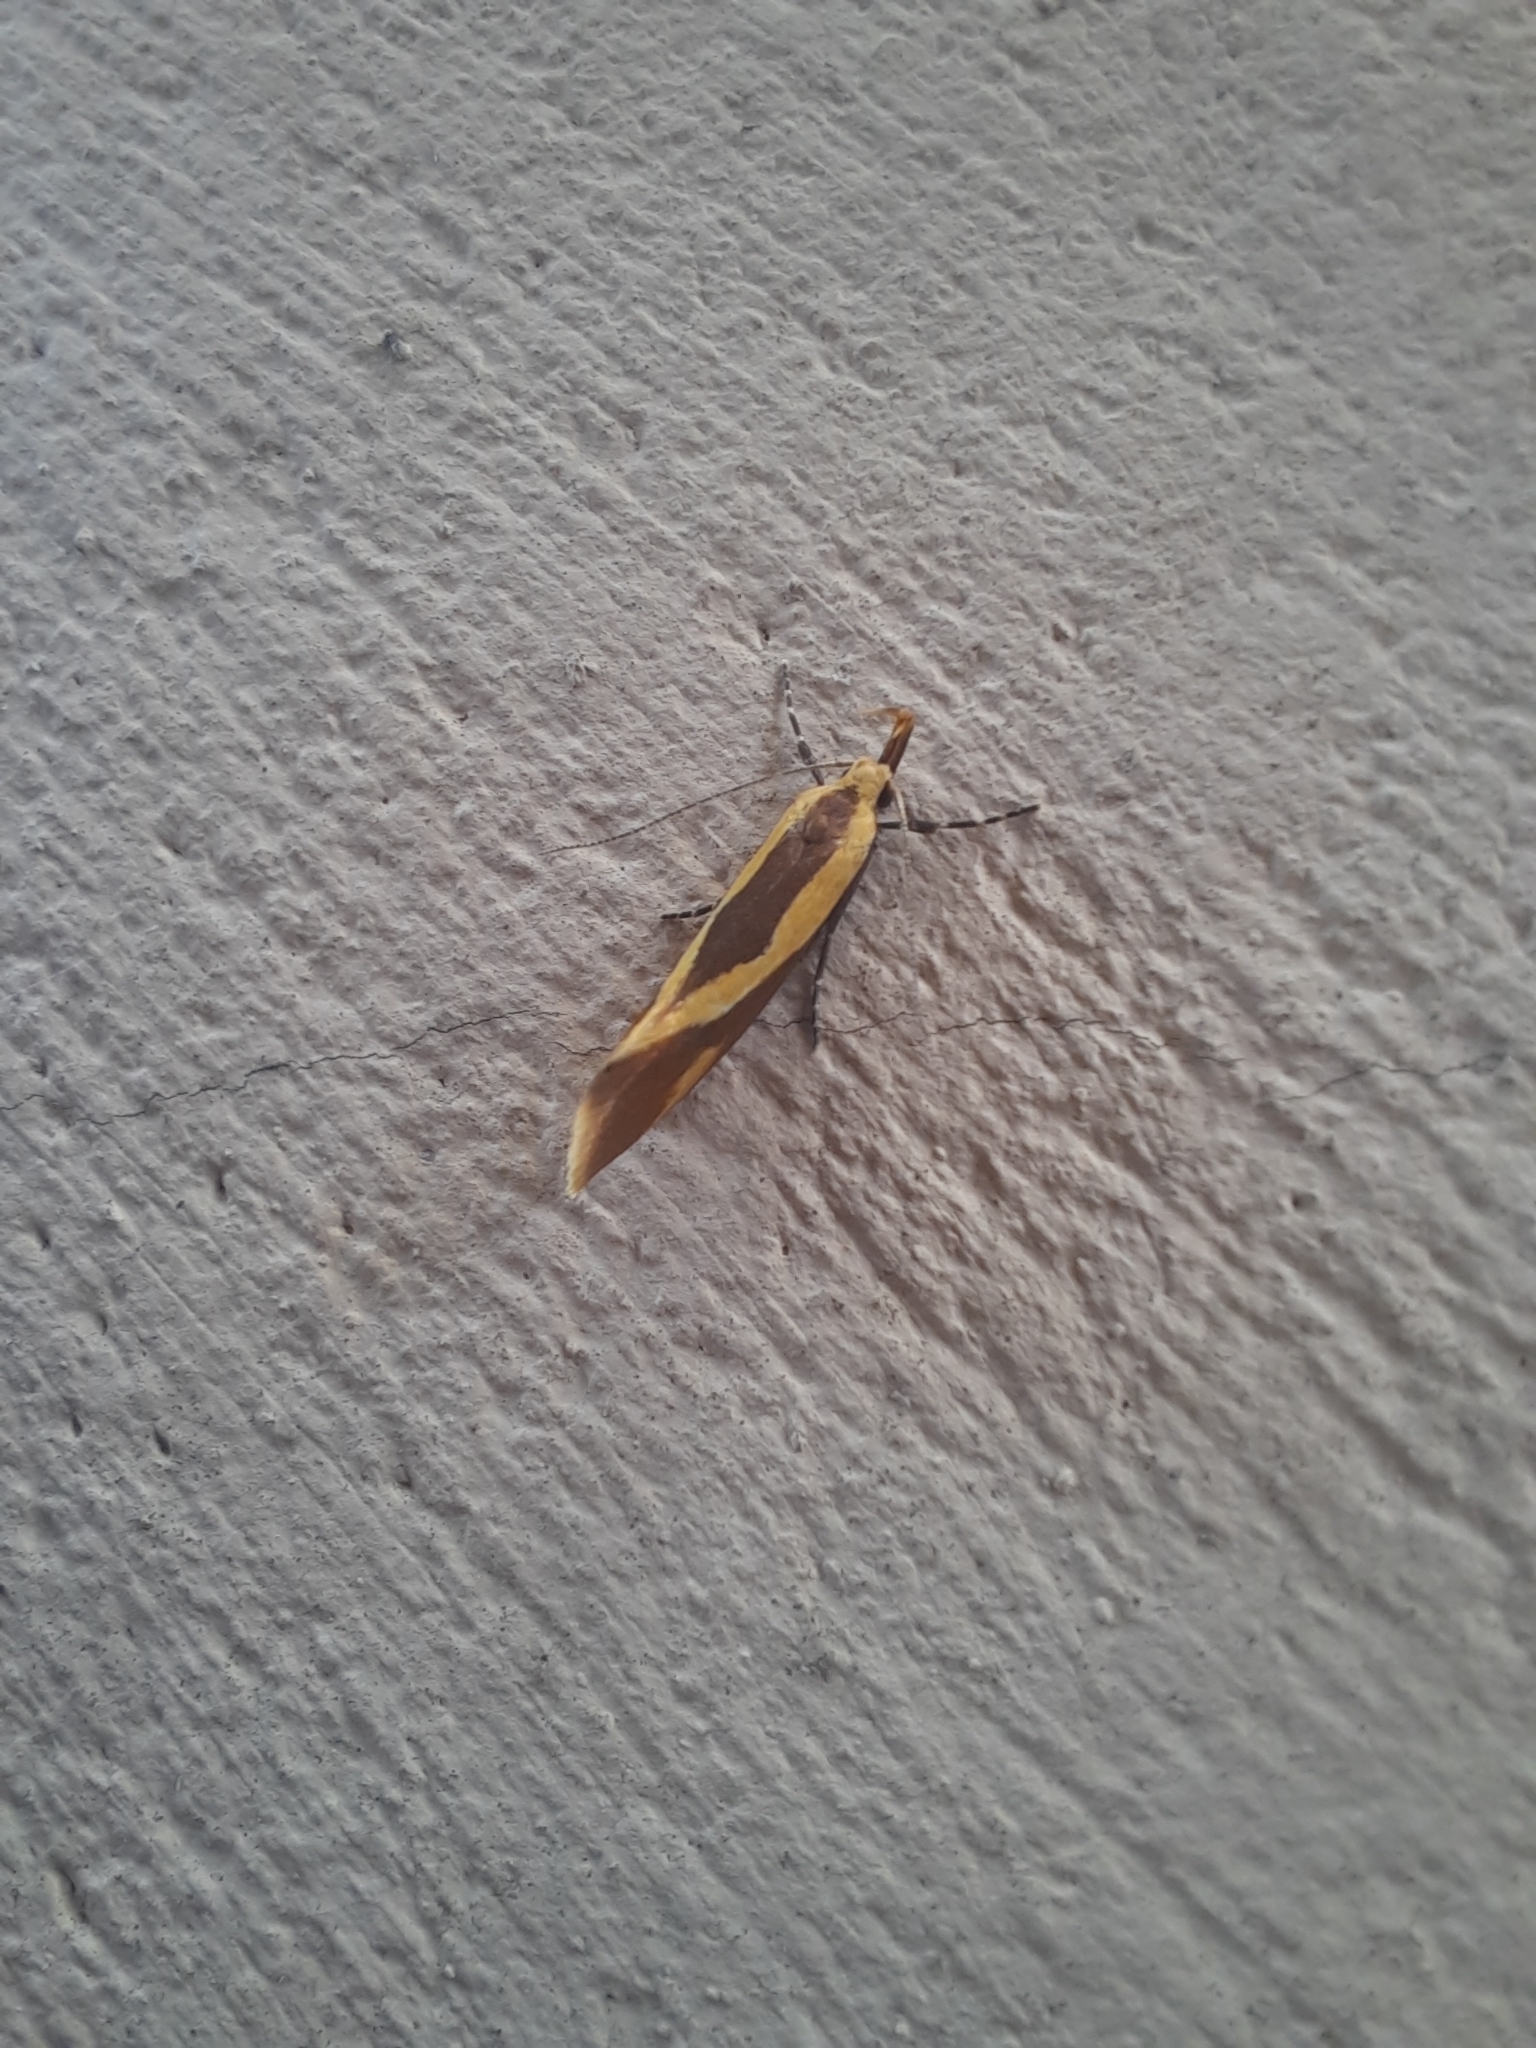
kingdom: Animalia
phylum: Arthropoda
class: Insecta
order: Lepidoptera
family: Oecophoridae
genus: Harpella
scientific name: Harpella forficella
